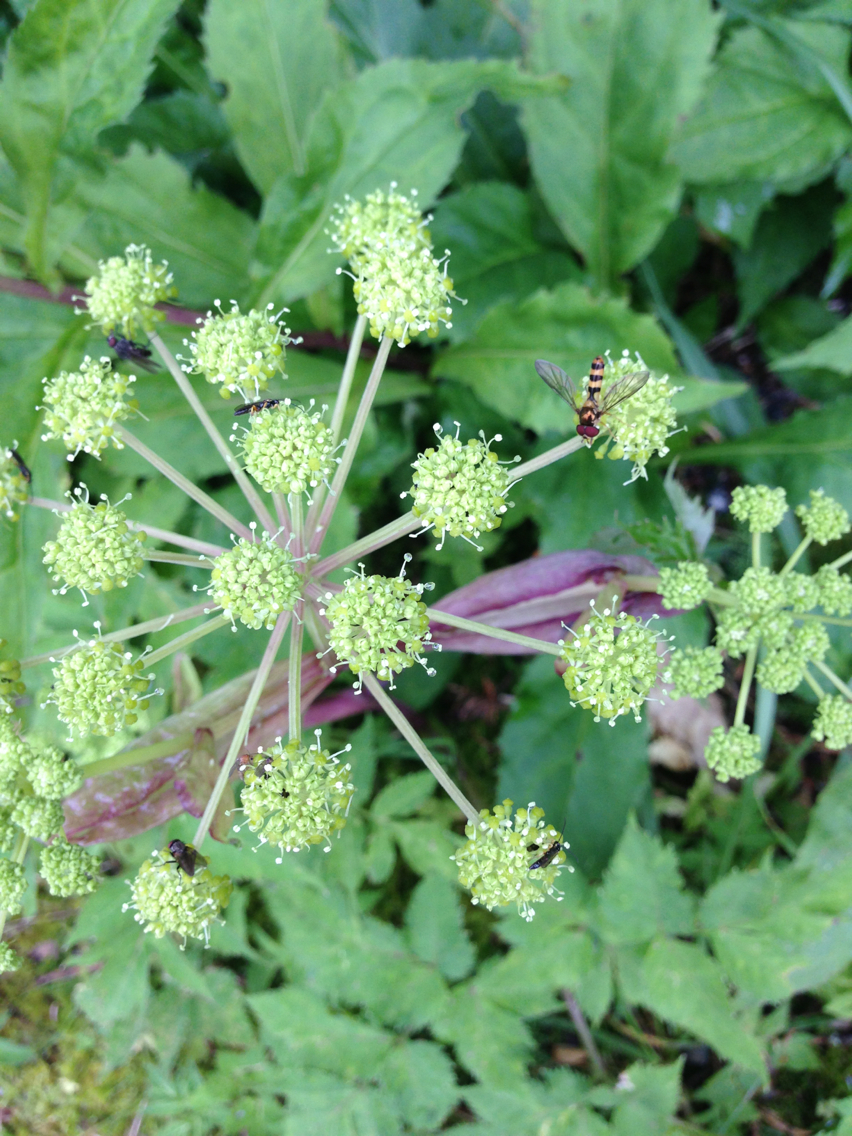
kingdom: Plantae
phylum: Tracheophyta
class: Magnoliopsida
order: Apiales
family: Apiaceae
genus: Angelica
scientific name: Angelica triquinata
